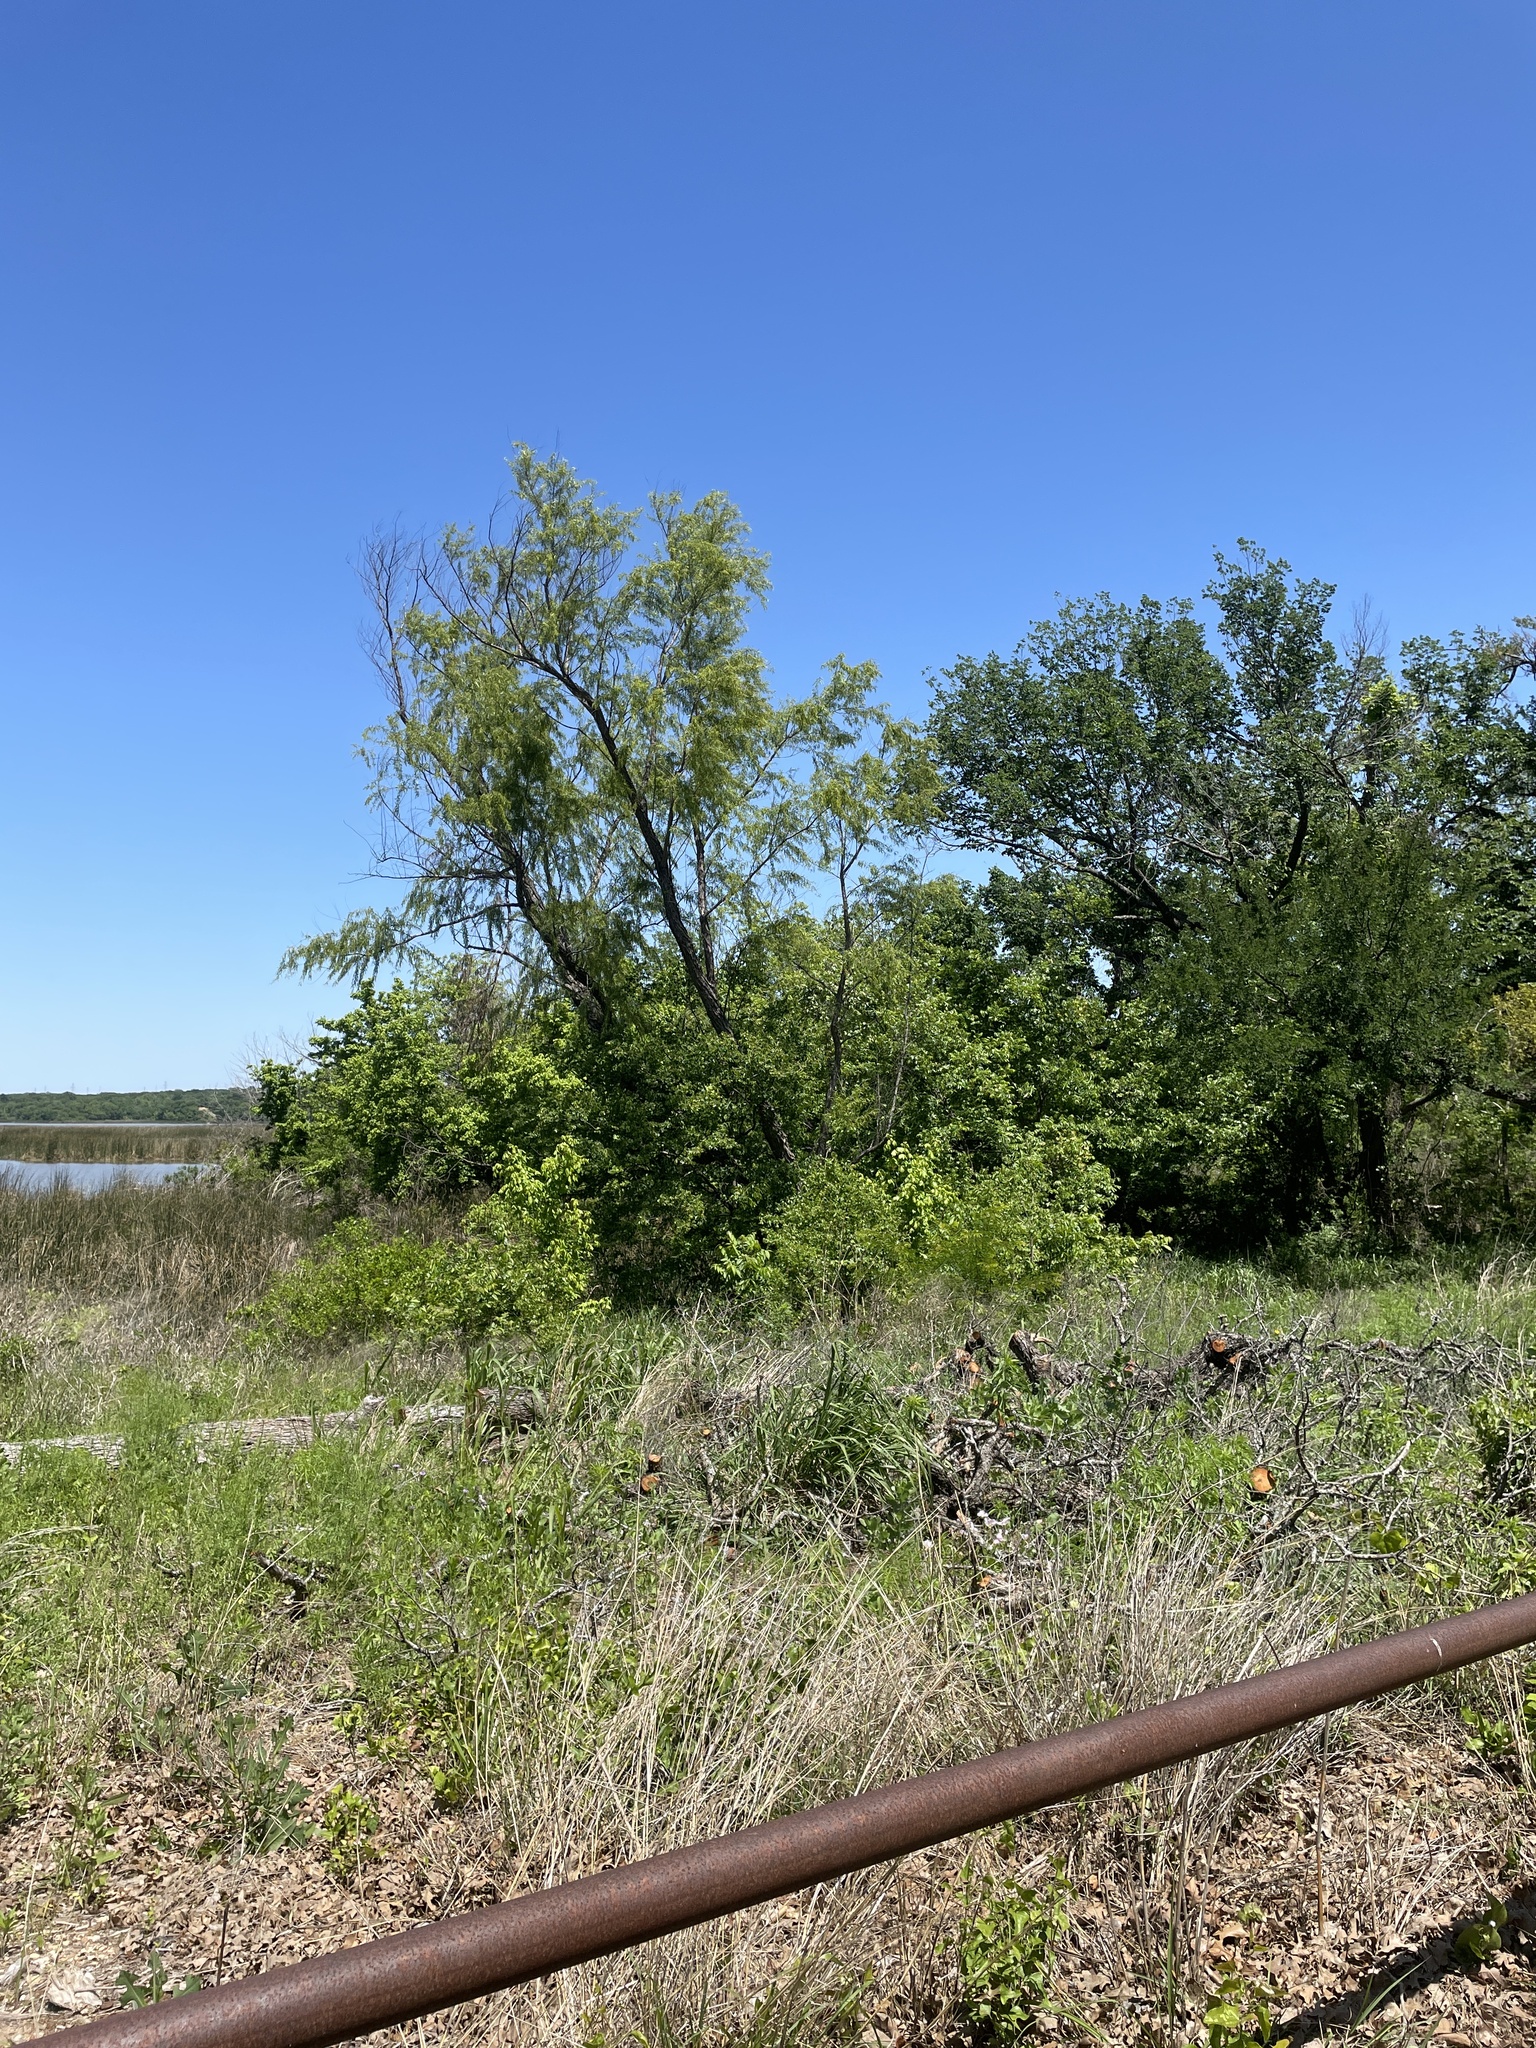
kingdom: Animalia
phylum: Chordata
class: Aves
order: Passeriformes
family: Paridae
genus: Baeolophus
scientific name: Baeolophus bicolor
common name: Tufted titmouse
